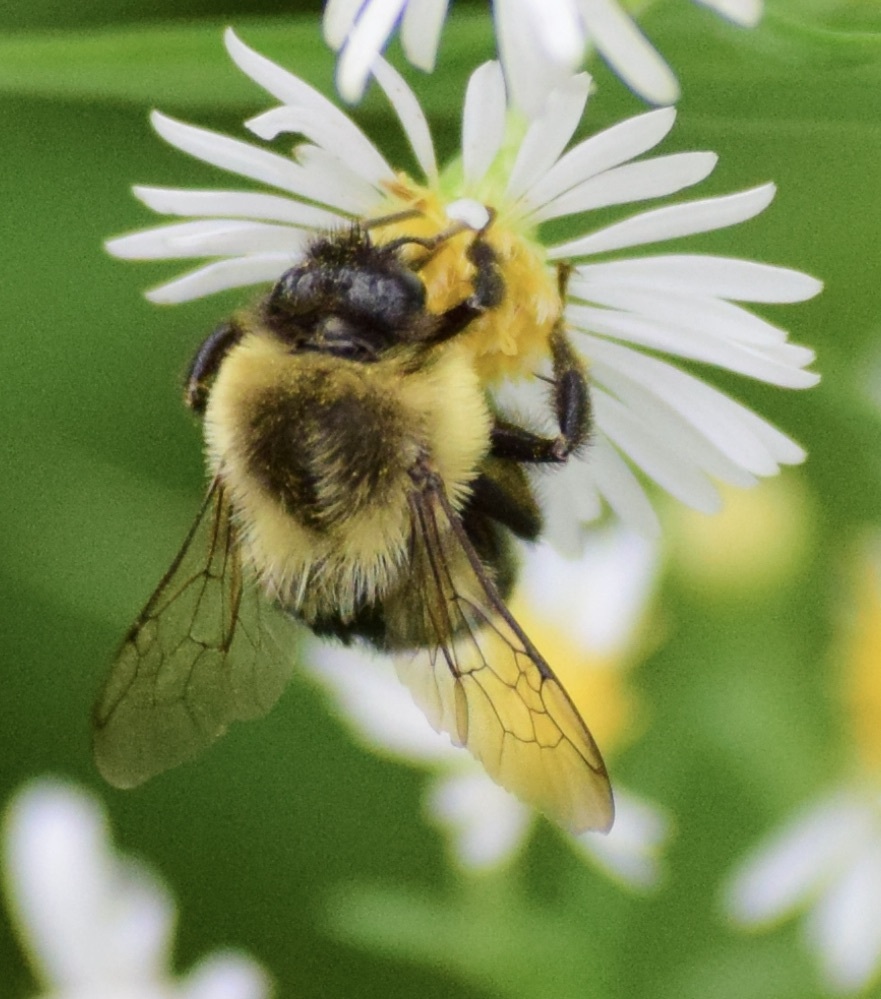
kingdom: Animalia
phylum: Arthropoda
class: Insecta
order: Hymenoptera
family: Apidae
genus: Bombus
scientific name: Bombus impatiens
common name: Common eastern bumble bee
